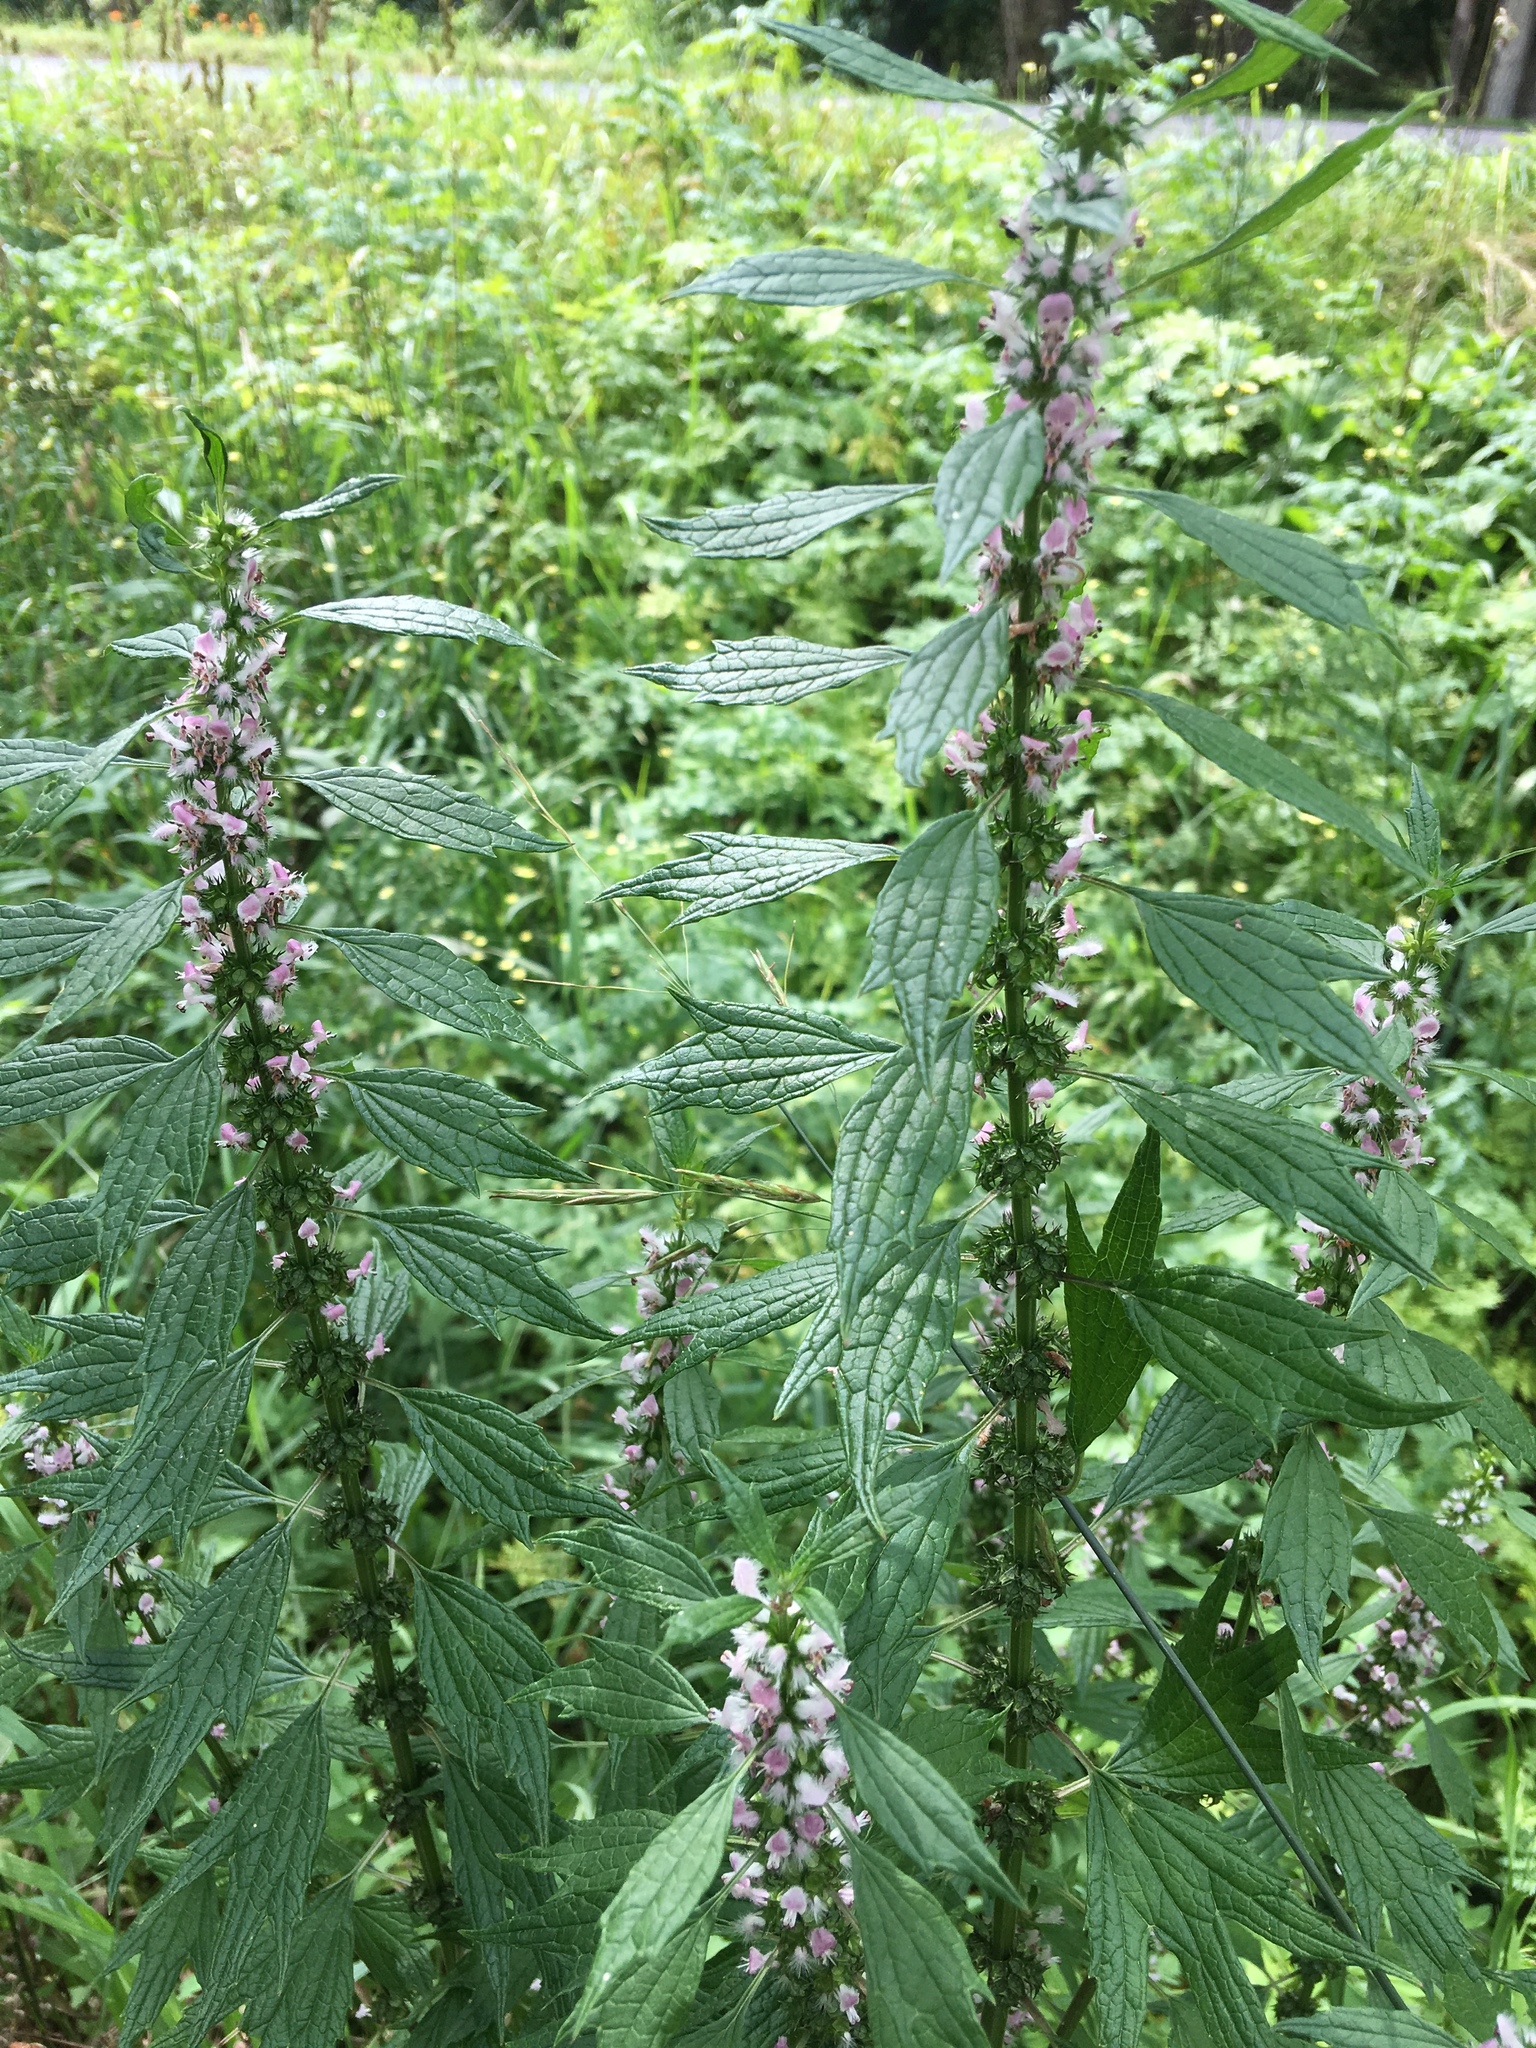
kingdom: Plantae
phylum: Tracheophyta
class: Magnoliopsida
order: Lamiales
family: Lamiaceae
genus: Leonurus
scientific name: Leonurus cardiaca
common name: Motherwort
